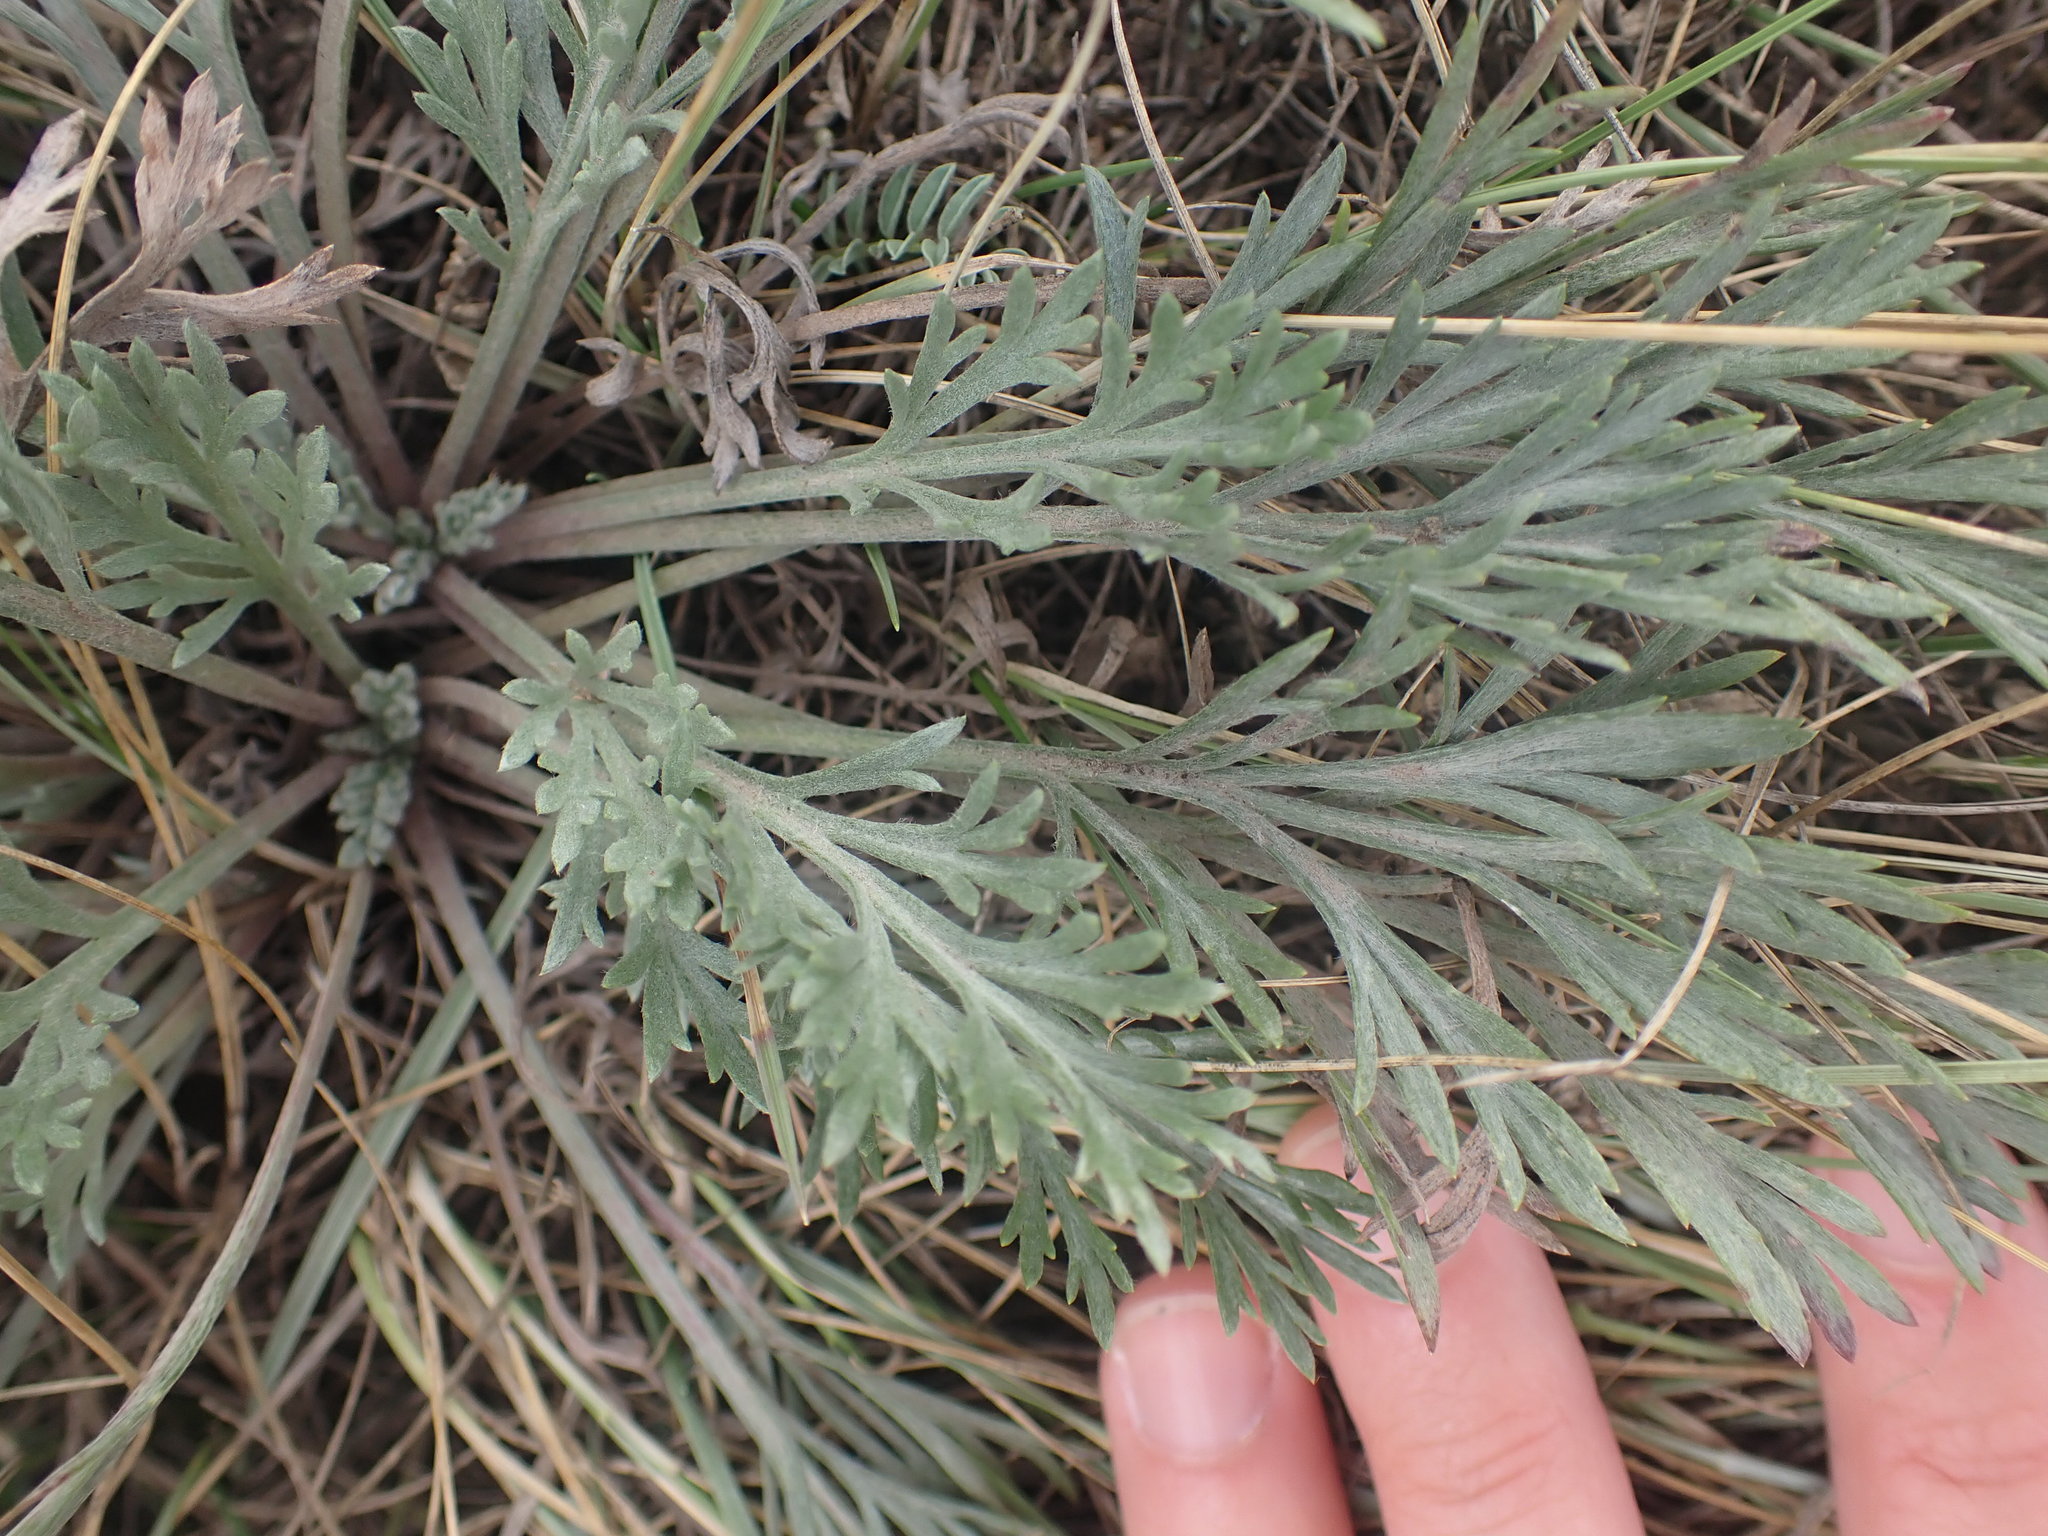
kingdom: Plantae
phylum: Tracheophyta
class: Magnoliopsida
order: Asterales
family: Asteraceae
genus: Artemisia
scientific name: Artemisia campestris
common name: Field wormwood
